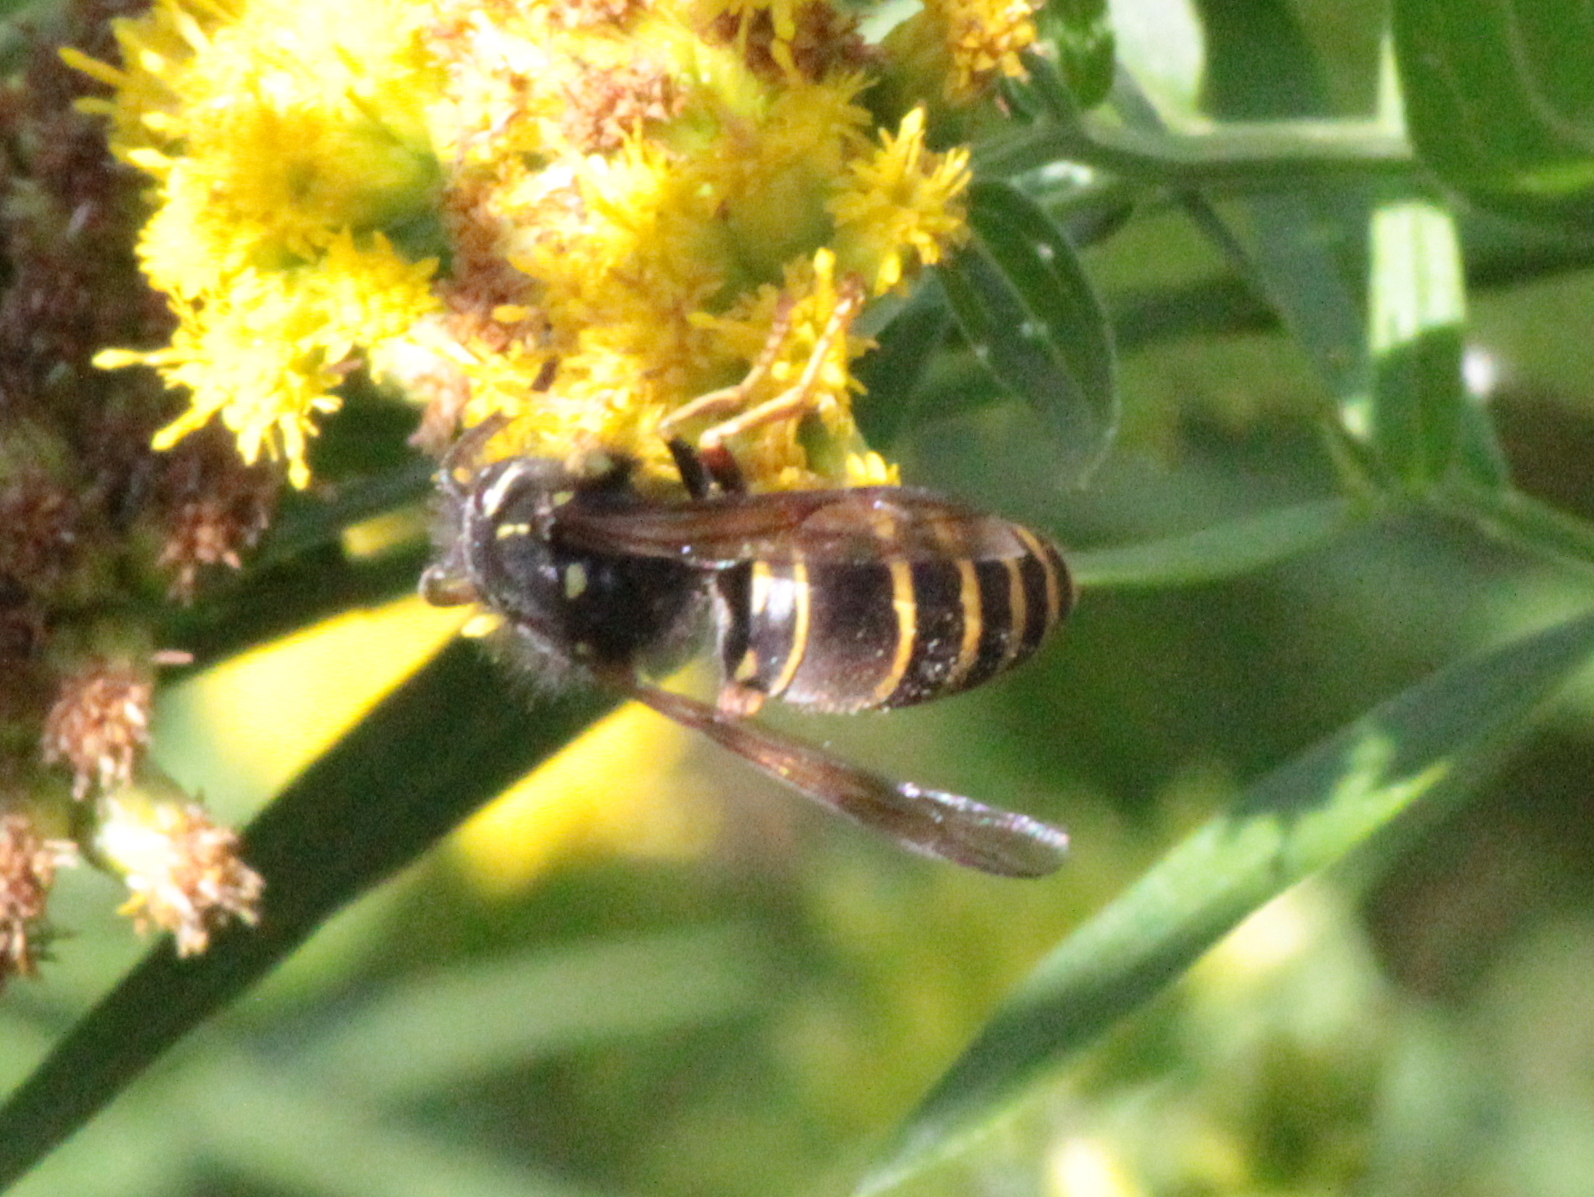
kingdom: Animalia
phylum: Arthropoda
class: Insecta
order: Hymenoptera
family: Vespidae
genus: Vespula
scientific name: Vespula acadica
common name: Forest yellowjacket
